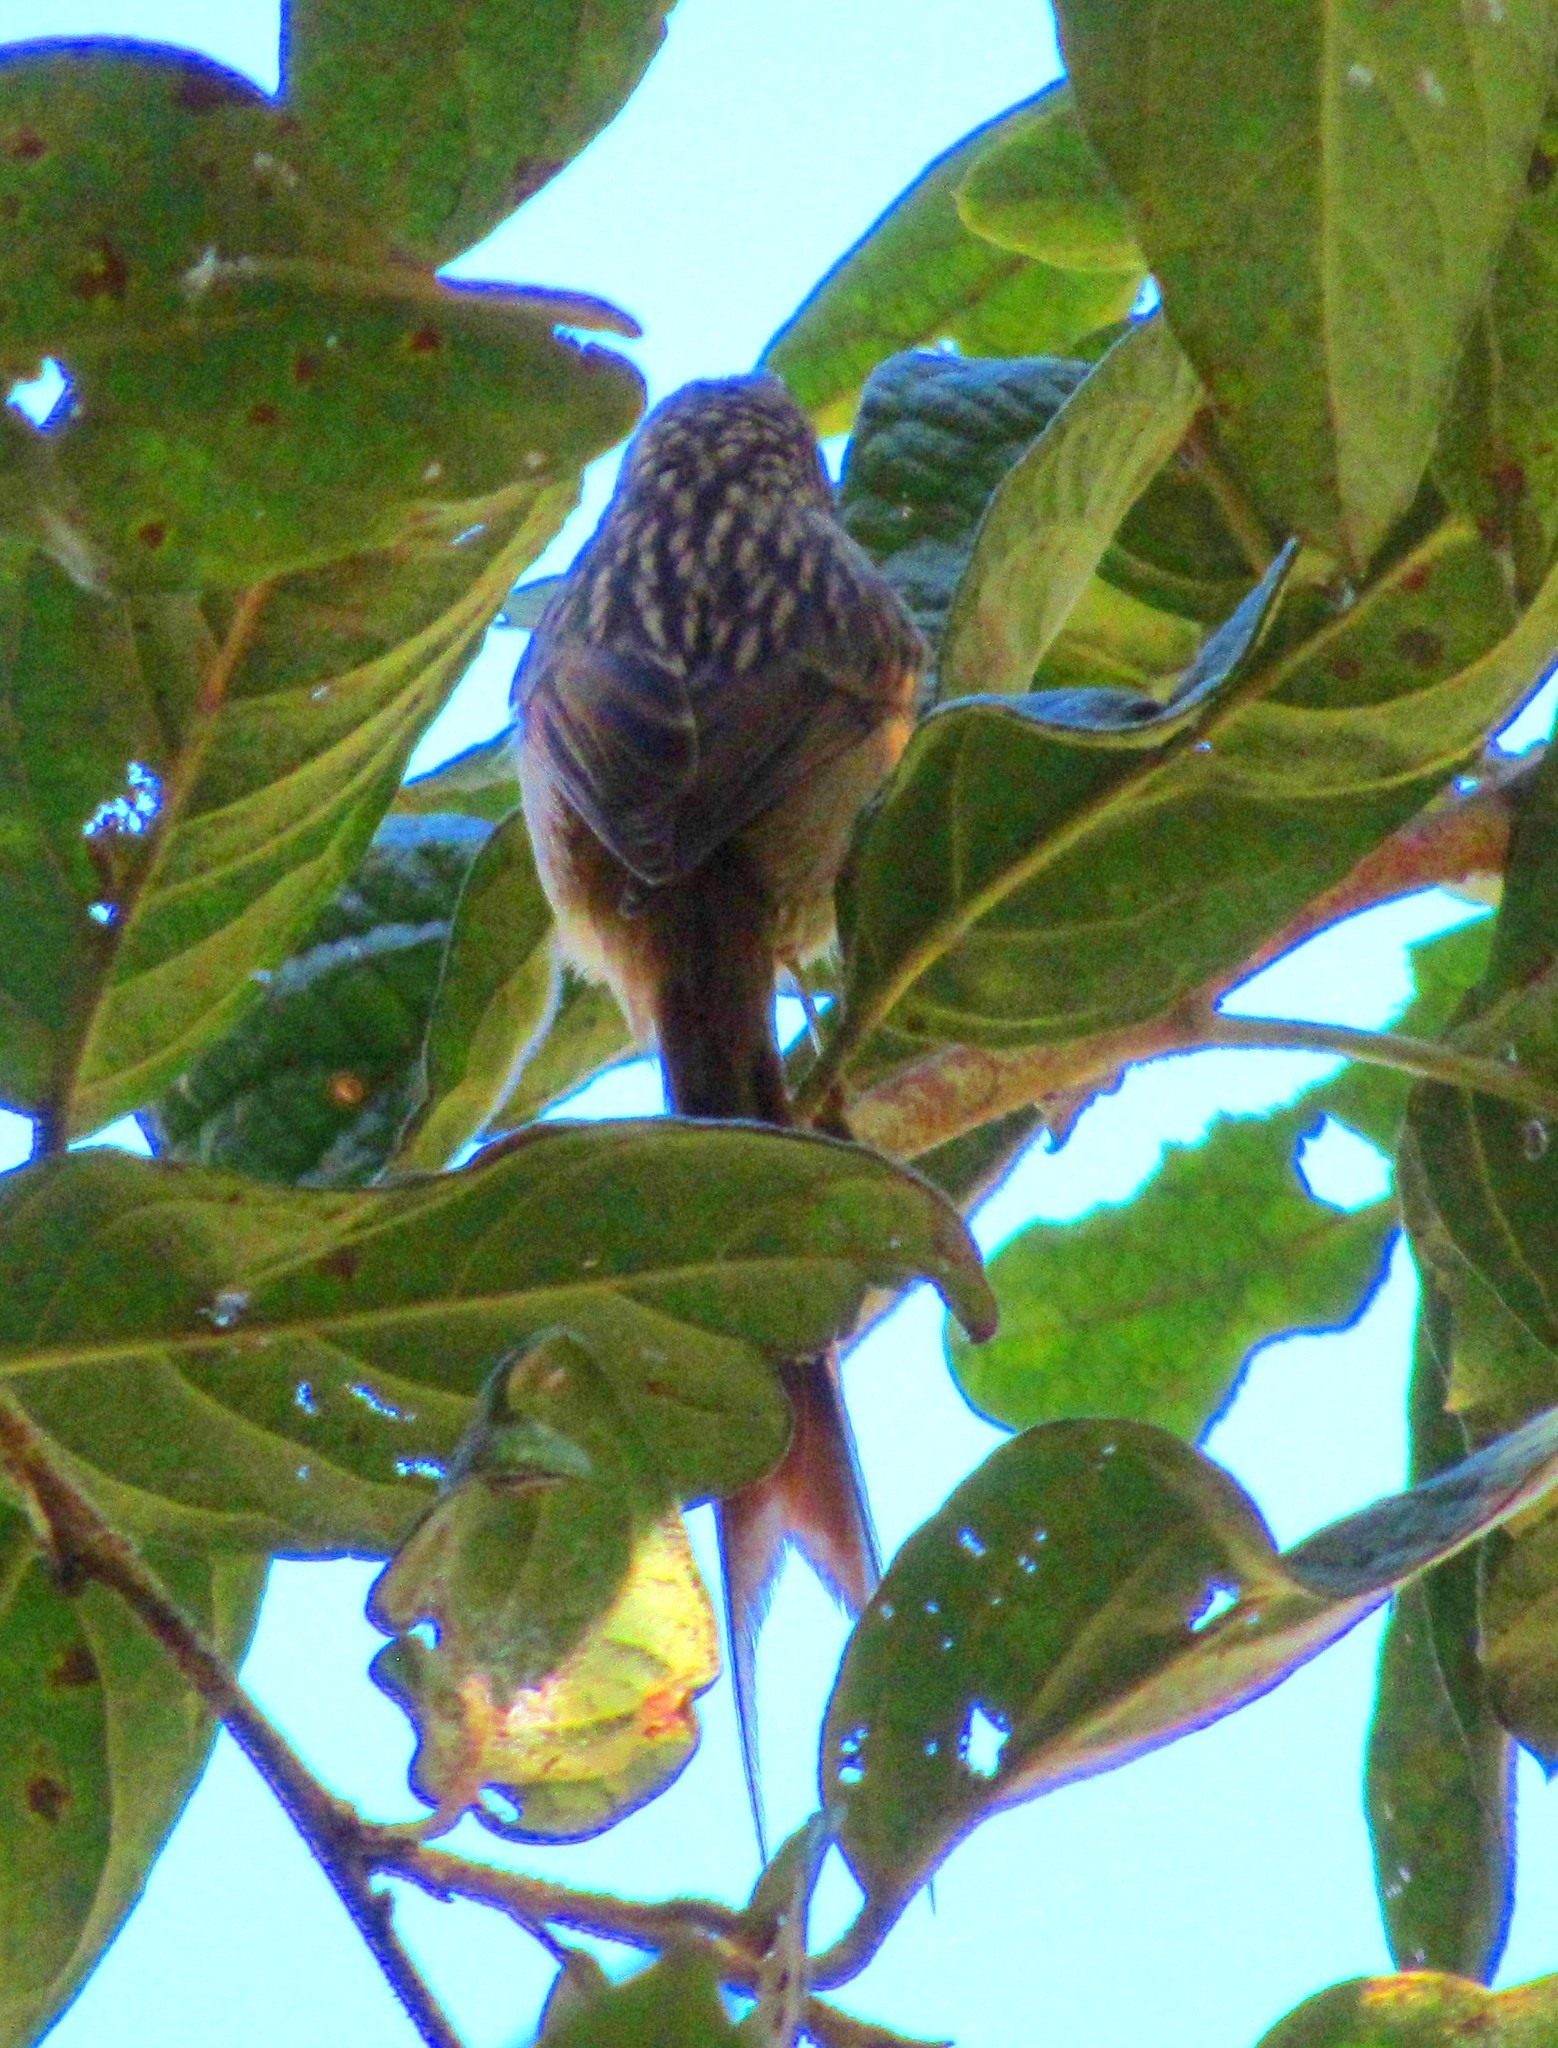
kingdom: Animalia
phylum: Chordata
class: Aves
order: Passeriformes
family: Furnariidae
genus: Leptasthenura
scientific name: Leptasthenura striolata
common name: Striolated tit-spinetail
